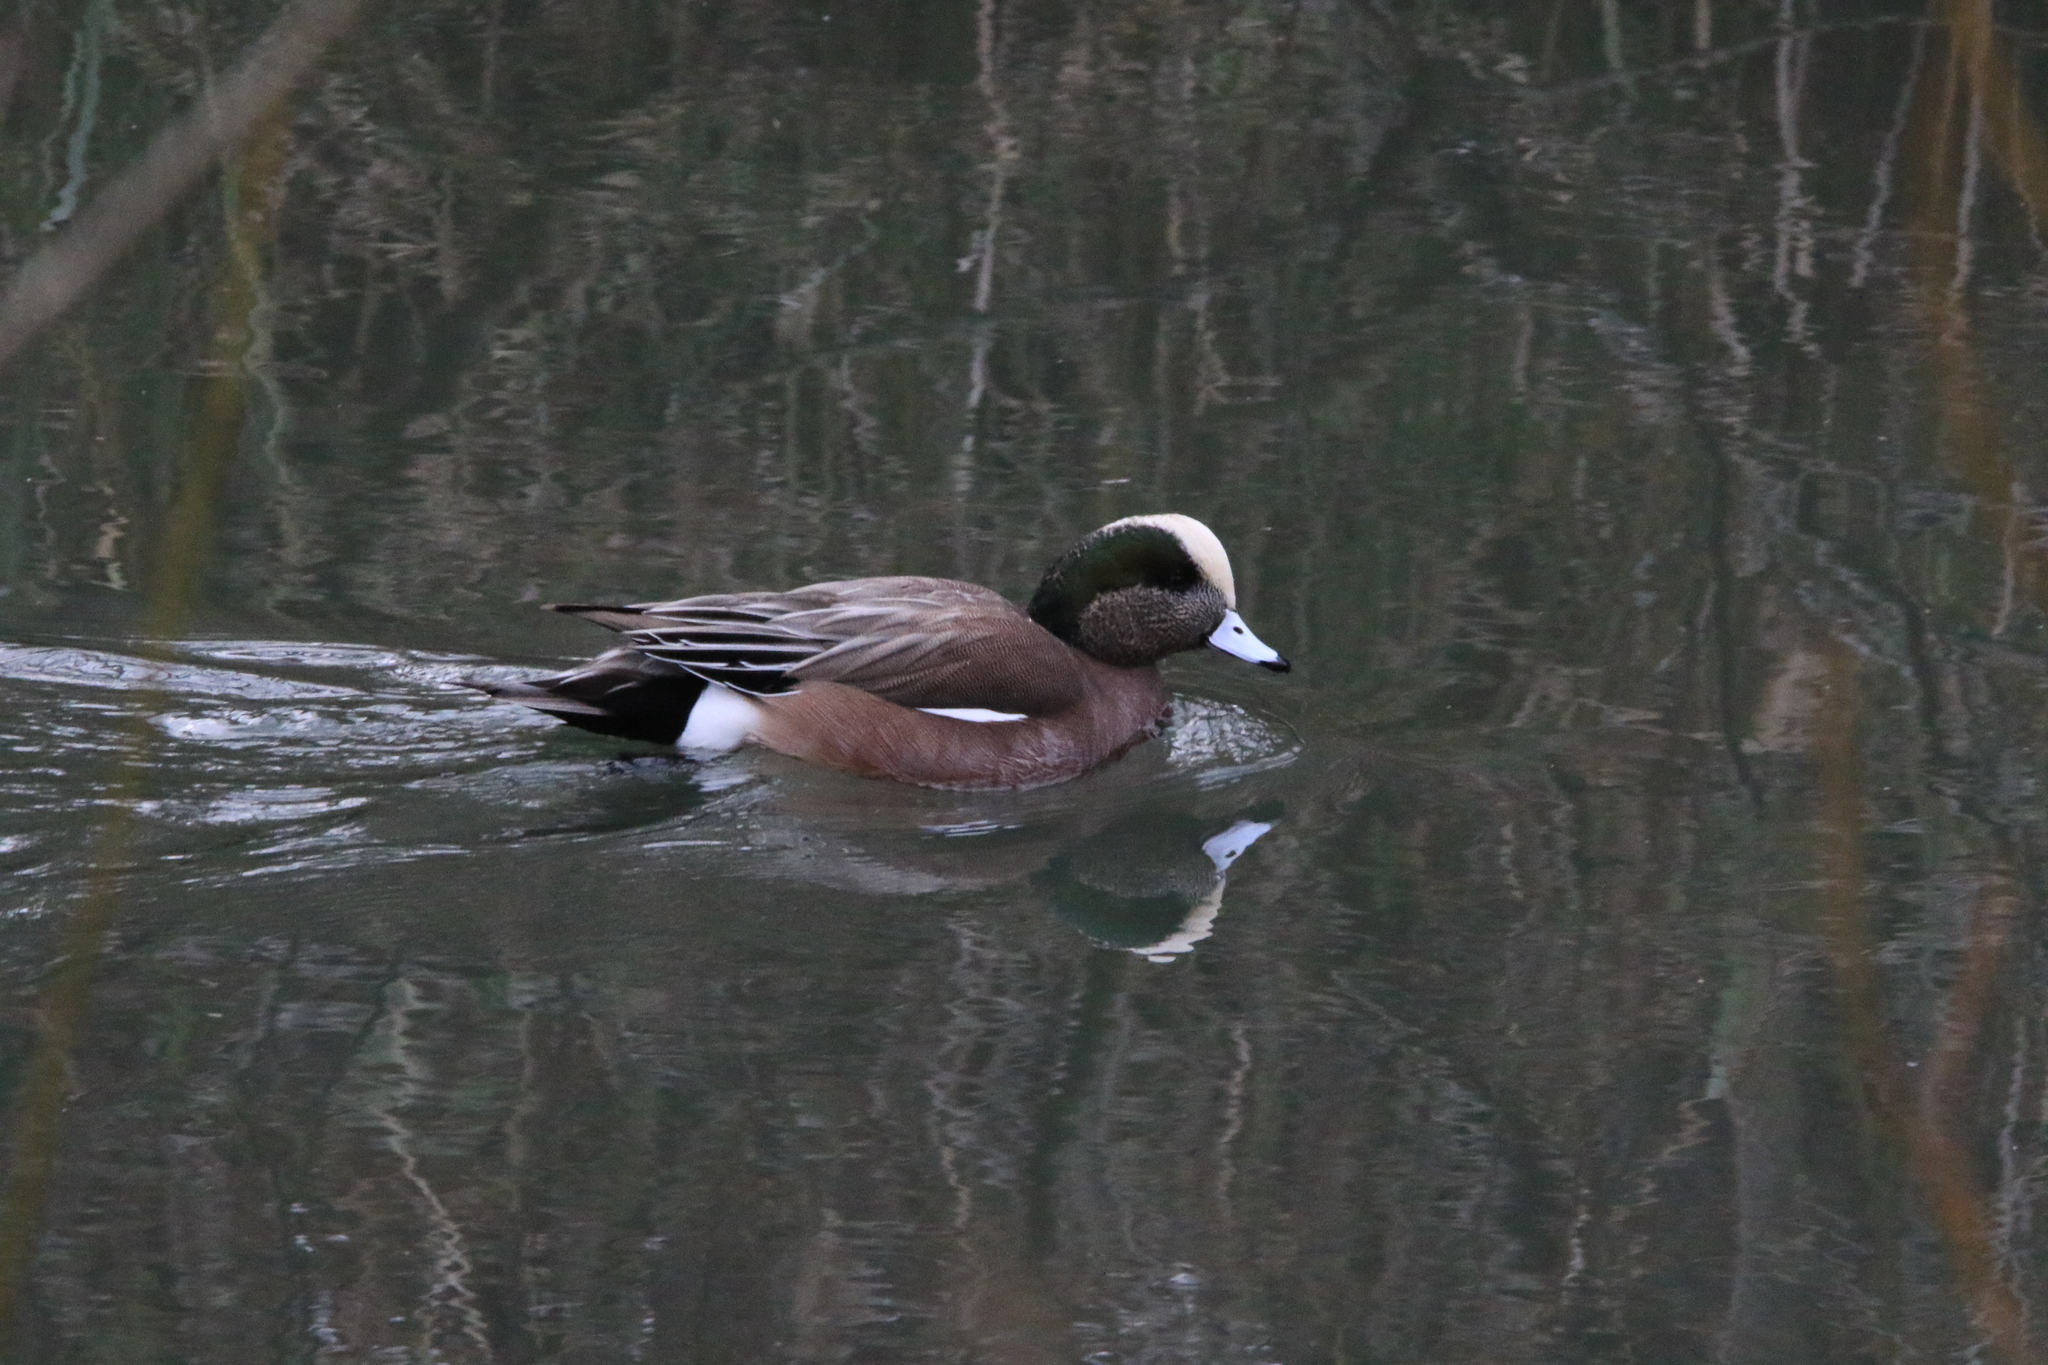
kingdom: Animalia
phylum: Chordata
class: Aves
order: Anseriformes
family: Anatidae
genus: Mareca
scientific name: Mareca americana
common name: American wigeon
